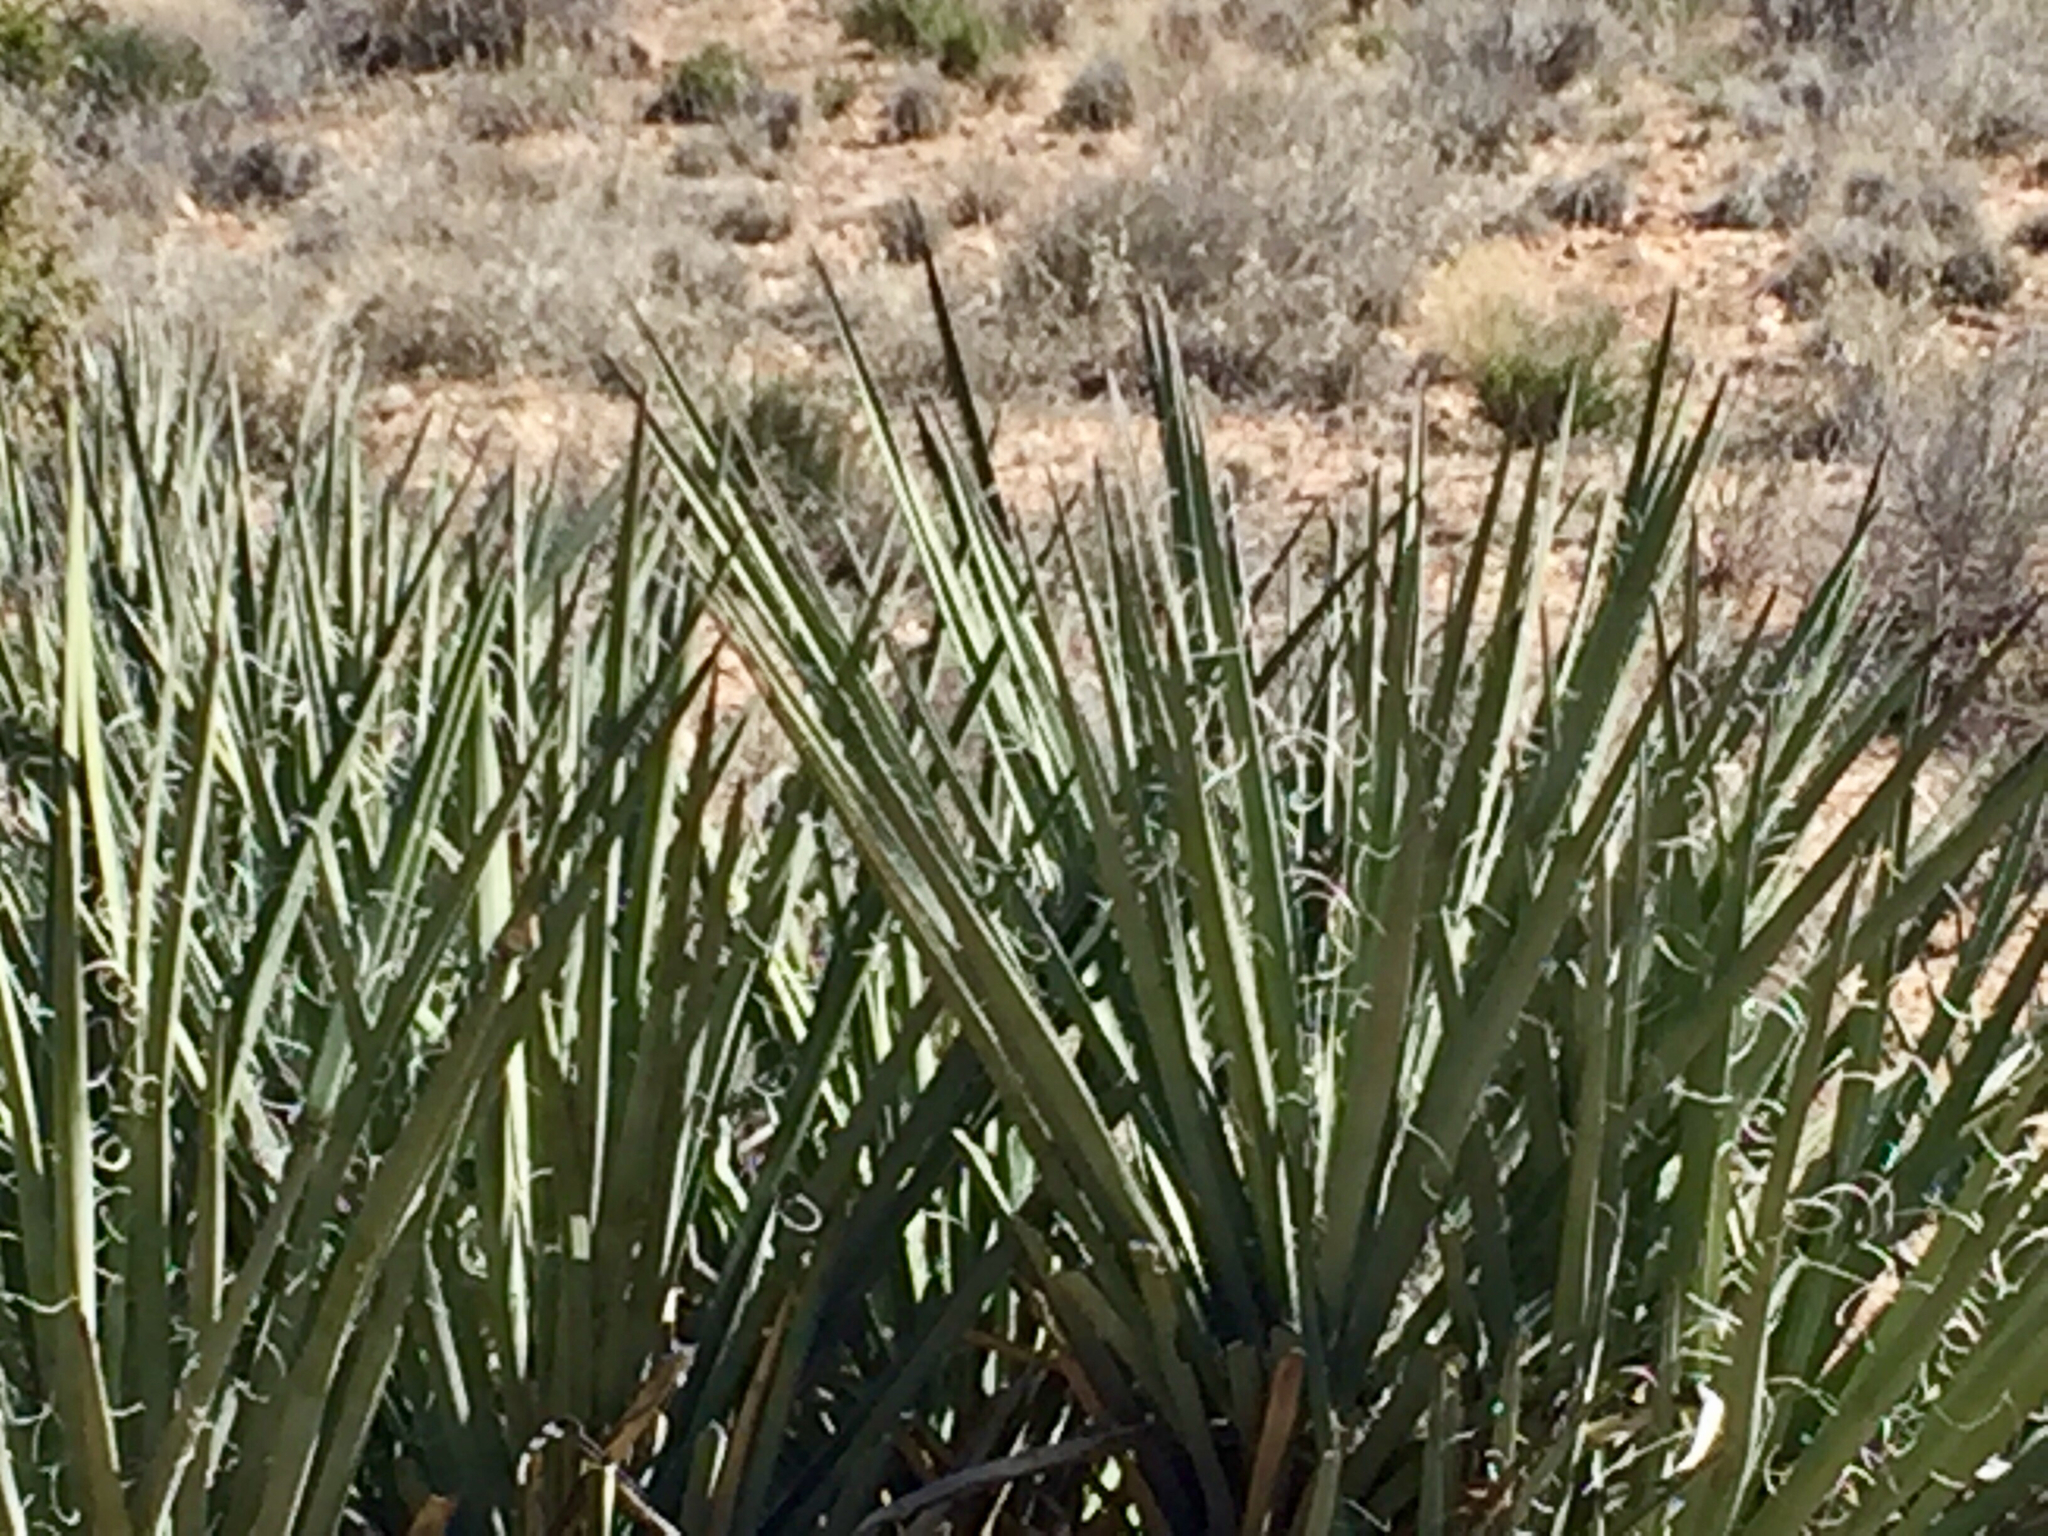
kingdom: Plantae
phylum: Tracheophyta
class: Liliopsida
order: Asparagales
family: Asparagaceae
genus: Yucca
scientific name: Yucca baccata
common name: Banana yucca
